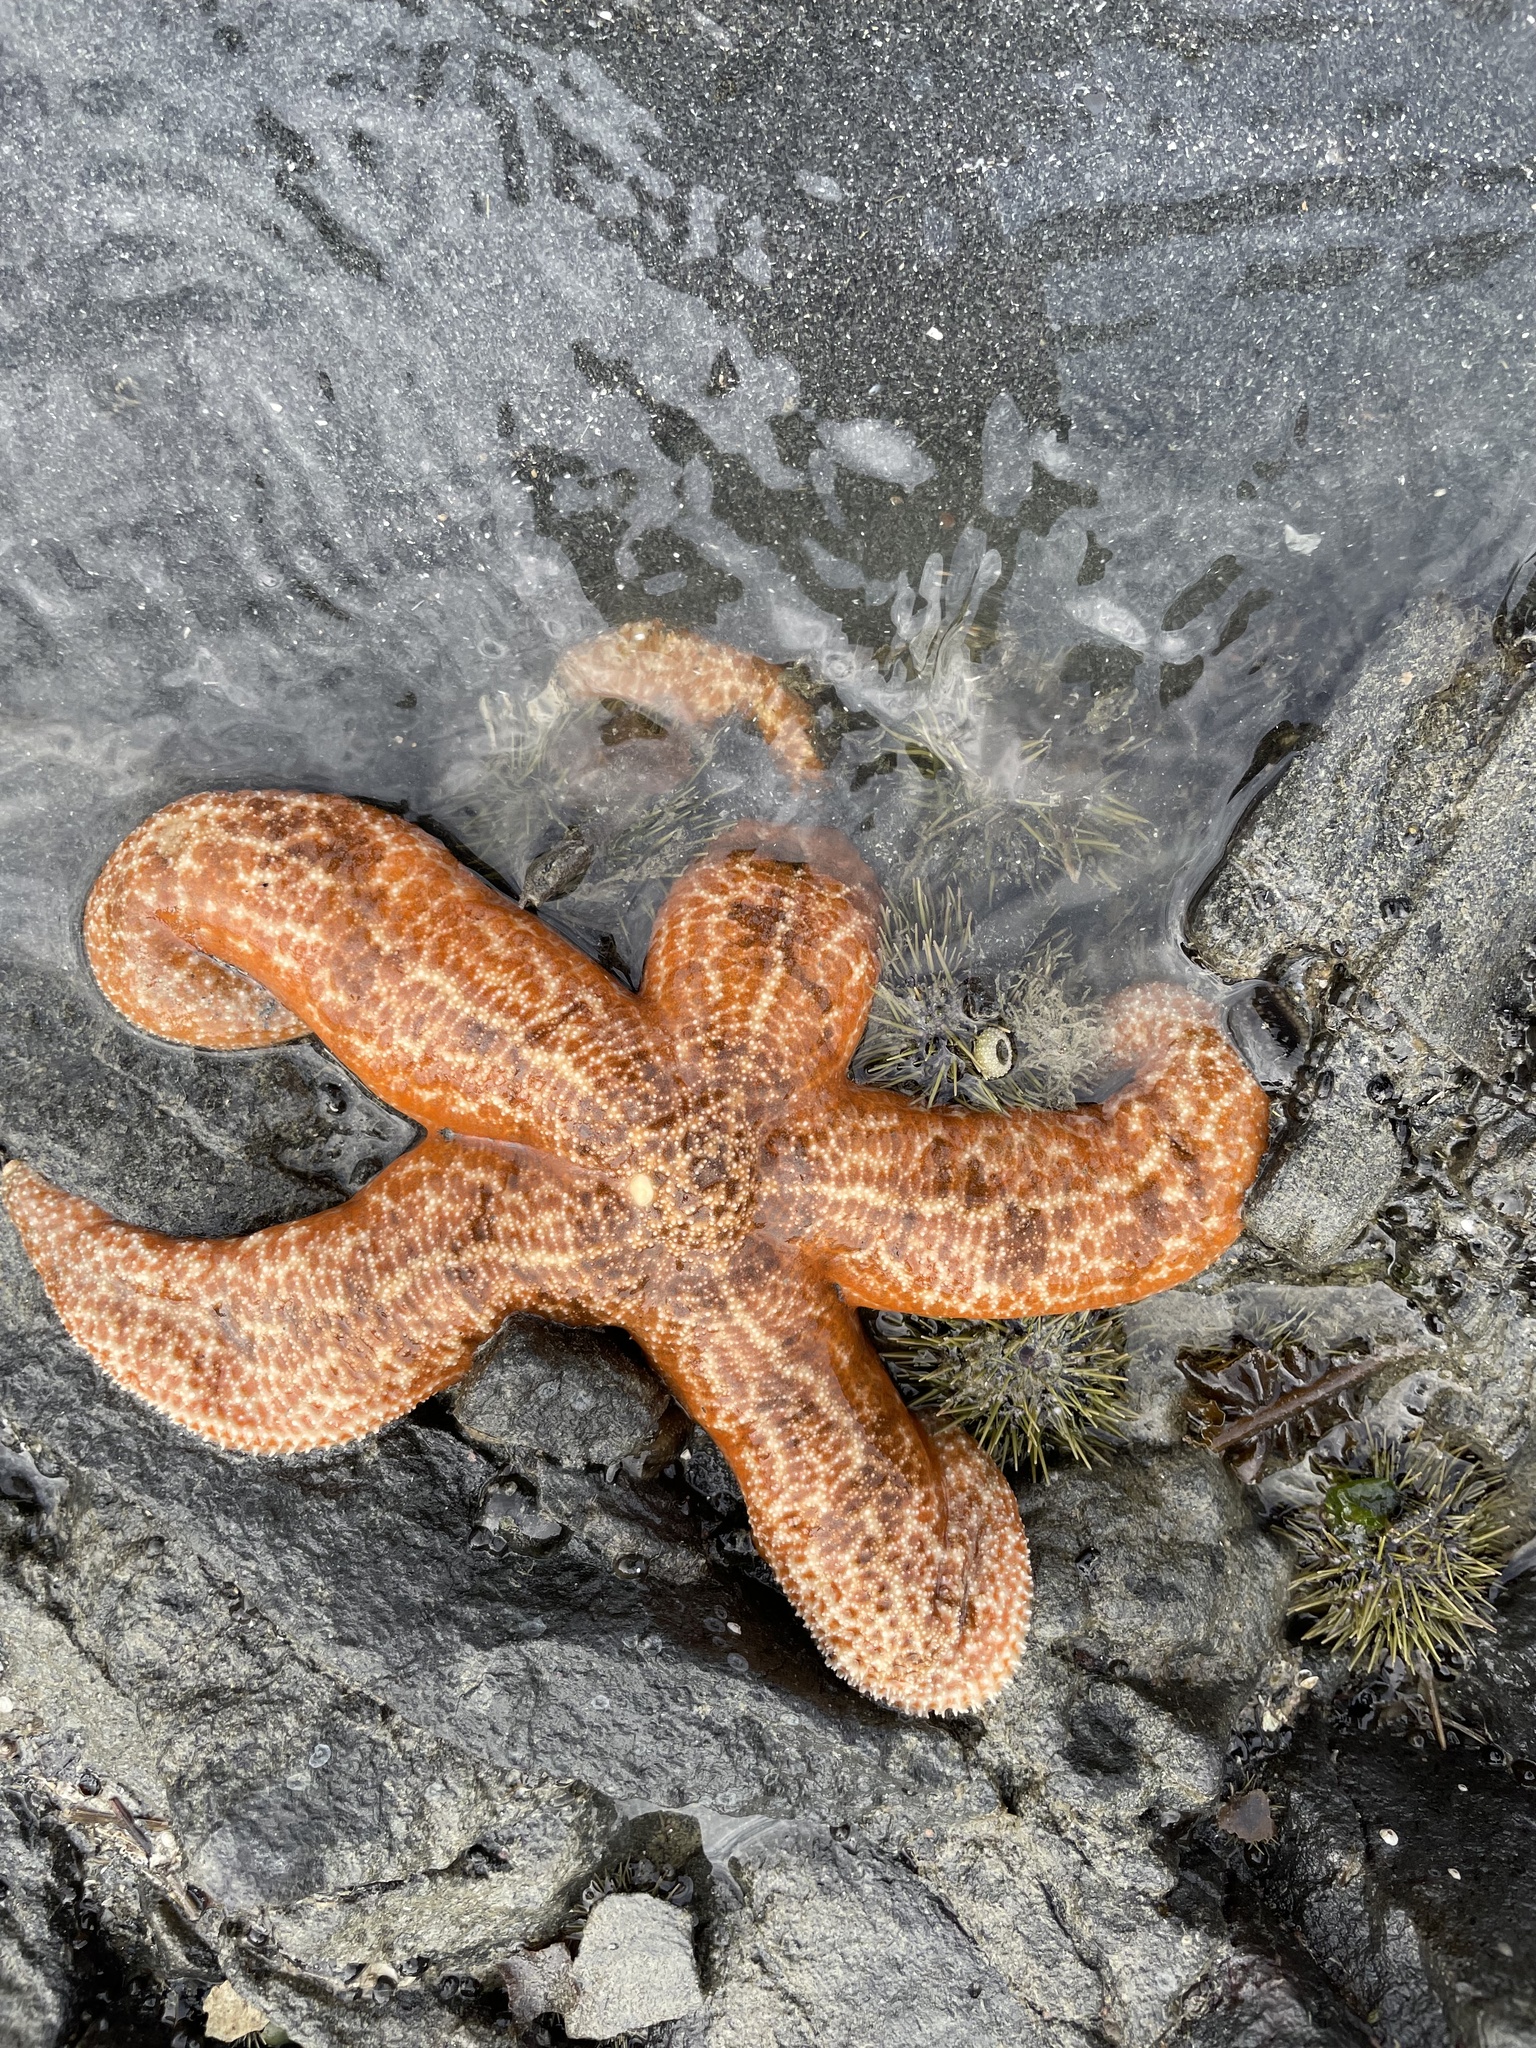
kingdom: Animalia
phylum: Echinodermata
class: Asteroidea
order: Forcipulatida
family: Asteriidae
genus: Evasterias
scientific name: Evasterias troschelii
